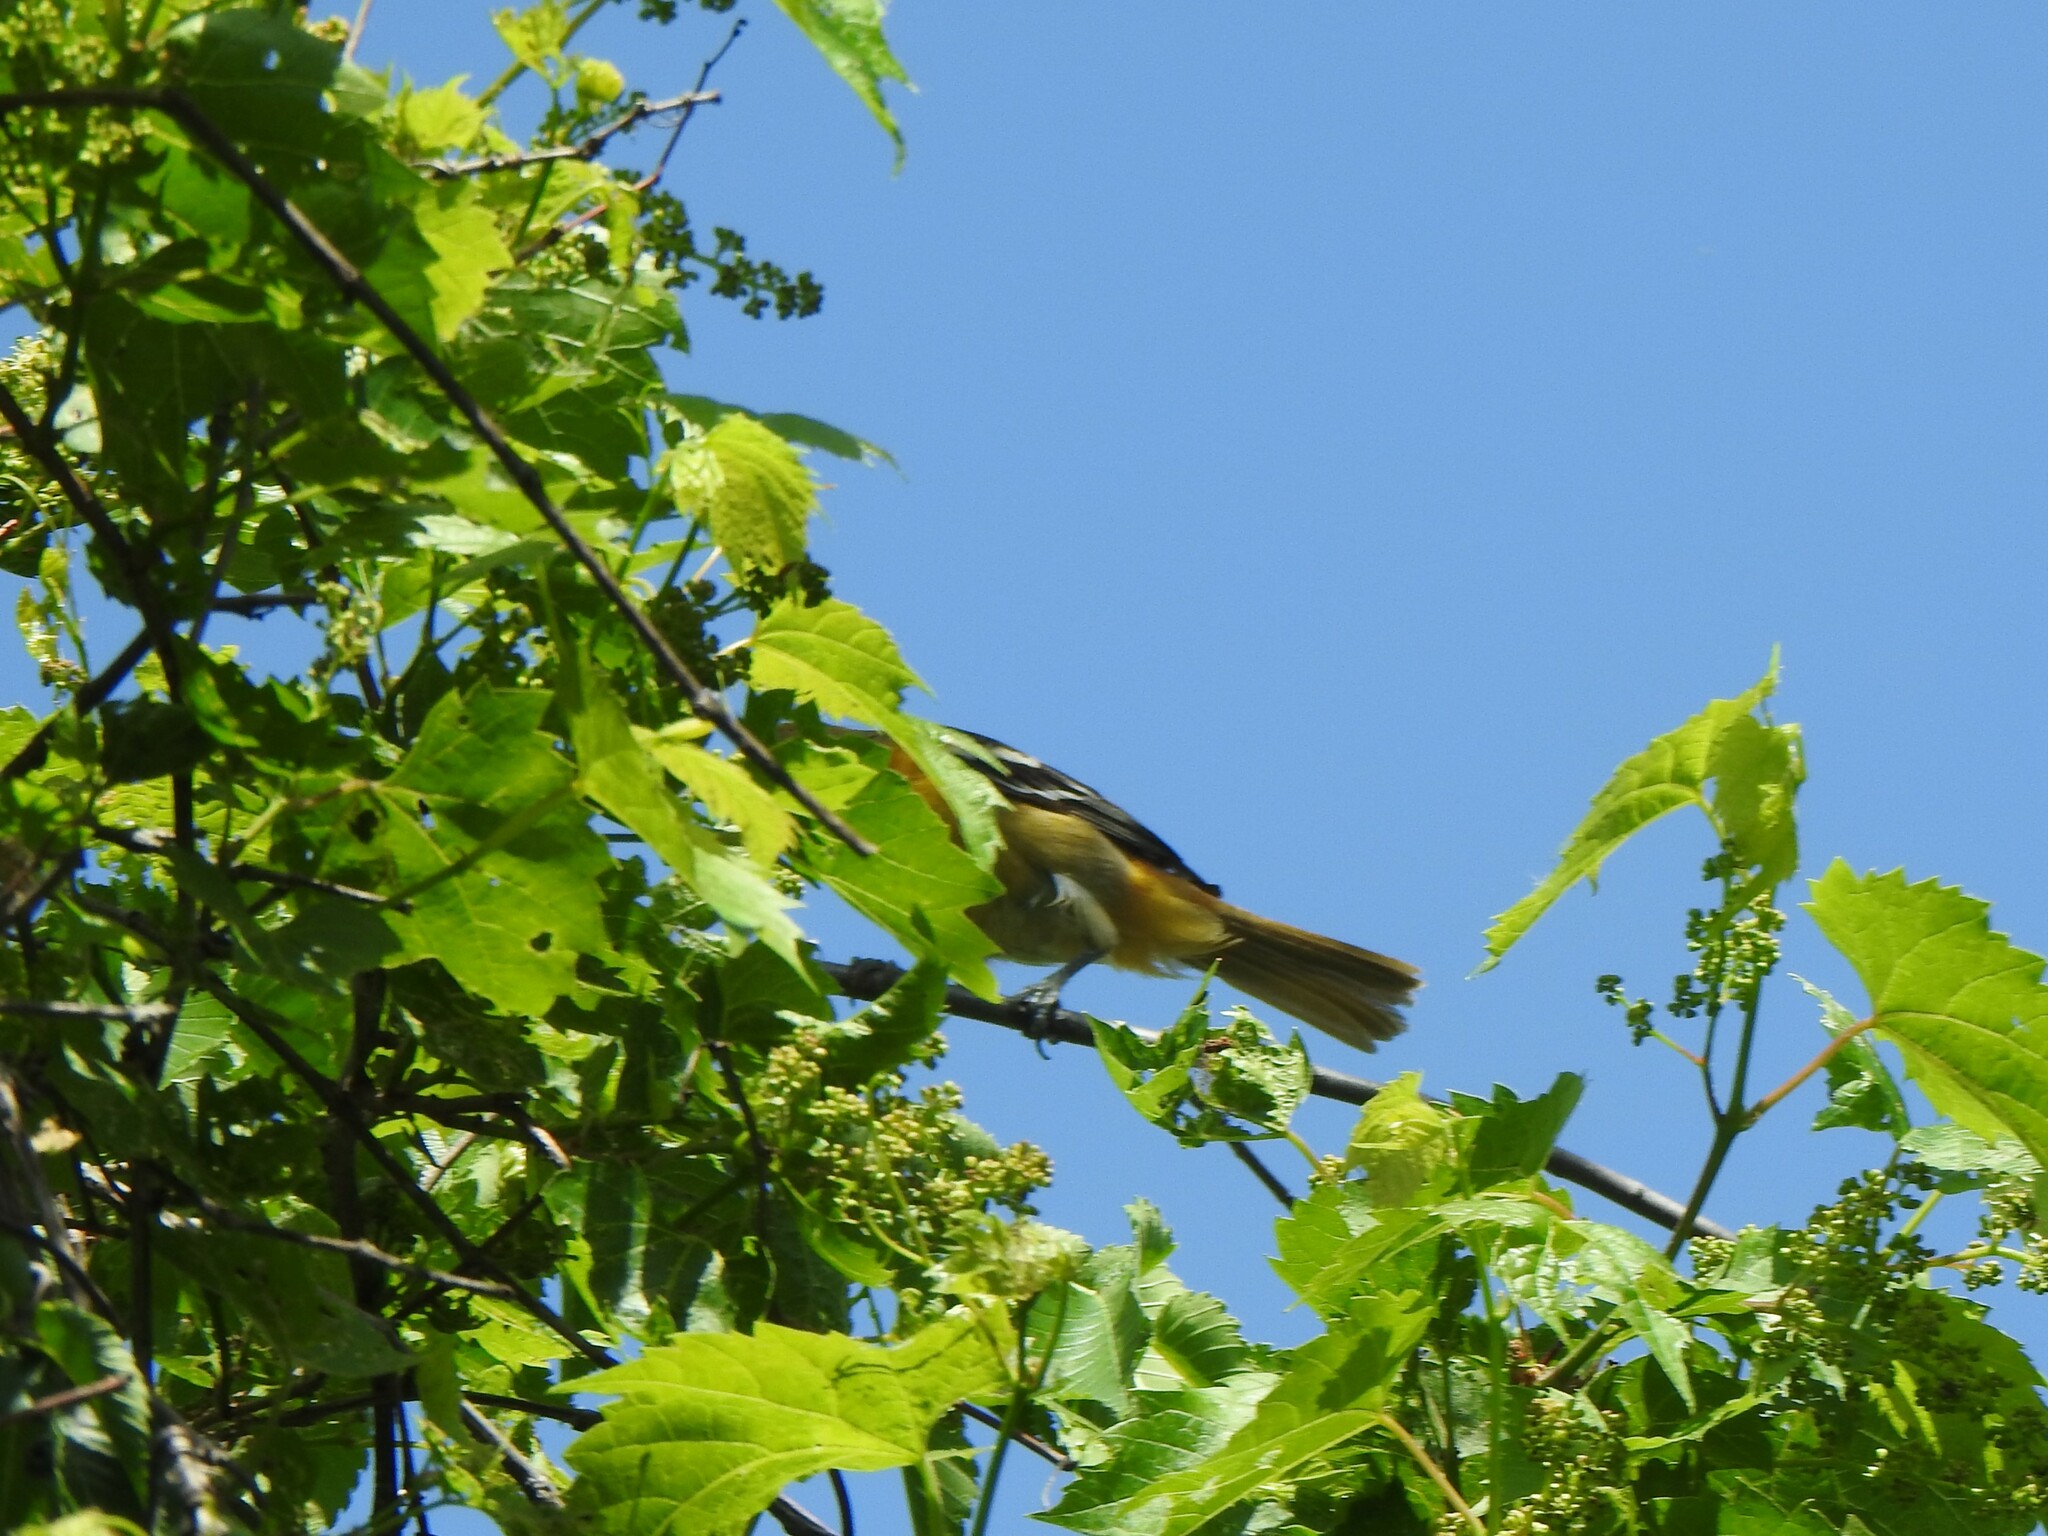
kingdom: Animalia
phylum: Chordata
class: Aves
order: Passeriformes
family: Icteridae
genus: Icterus
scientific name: Icterus galbula
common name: Baltimore oriole
